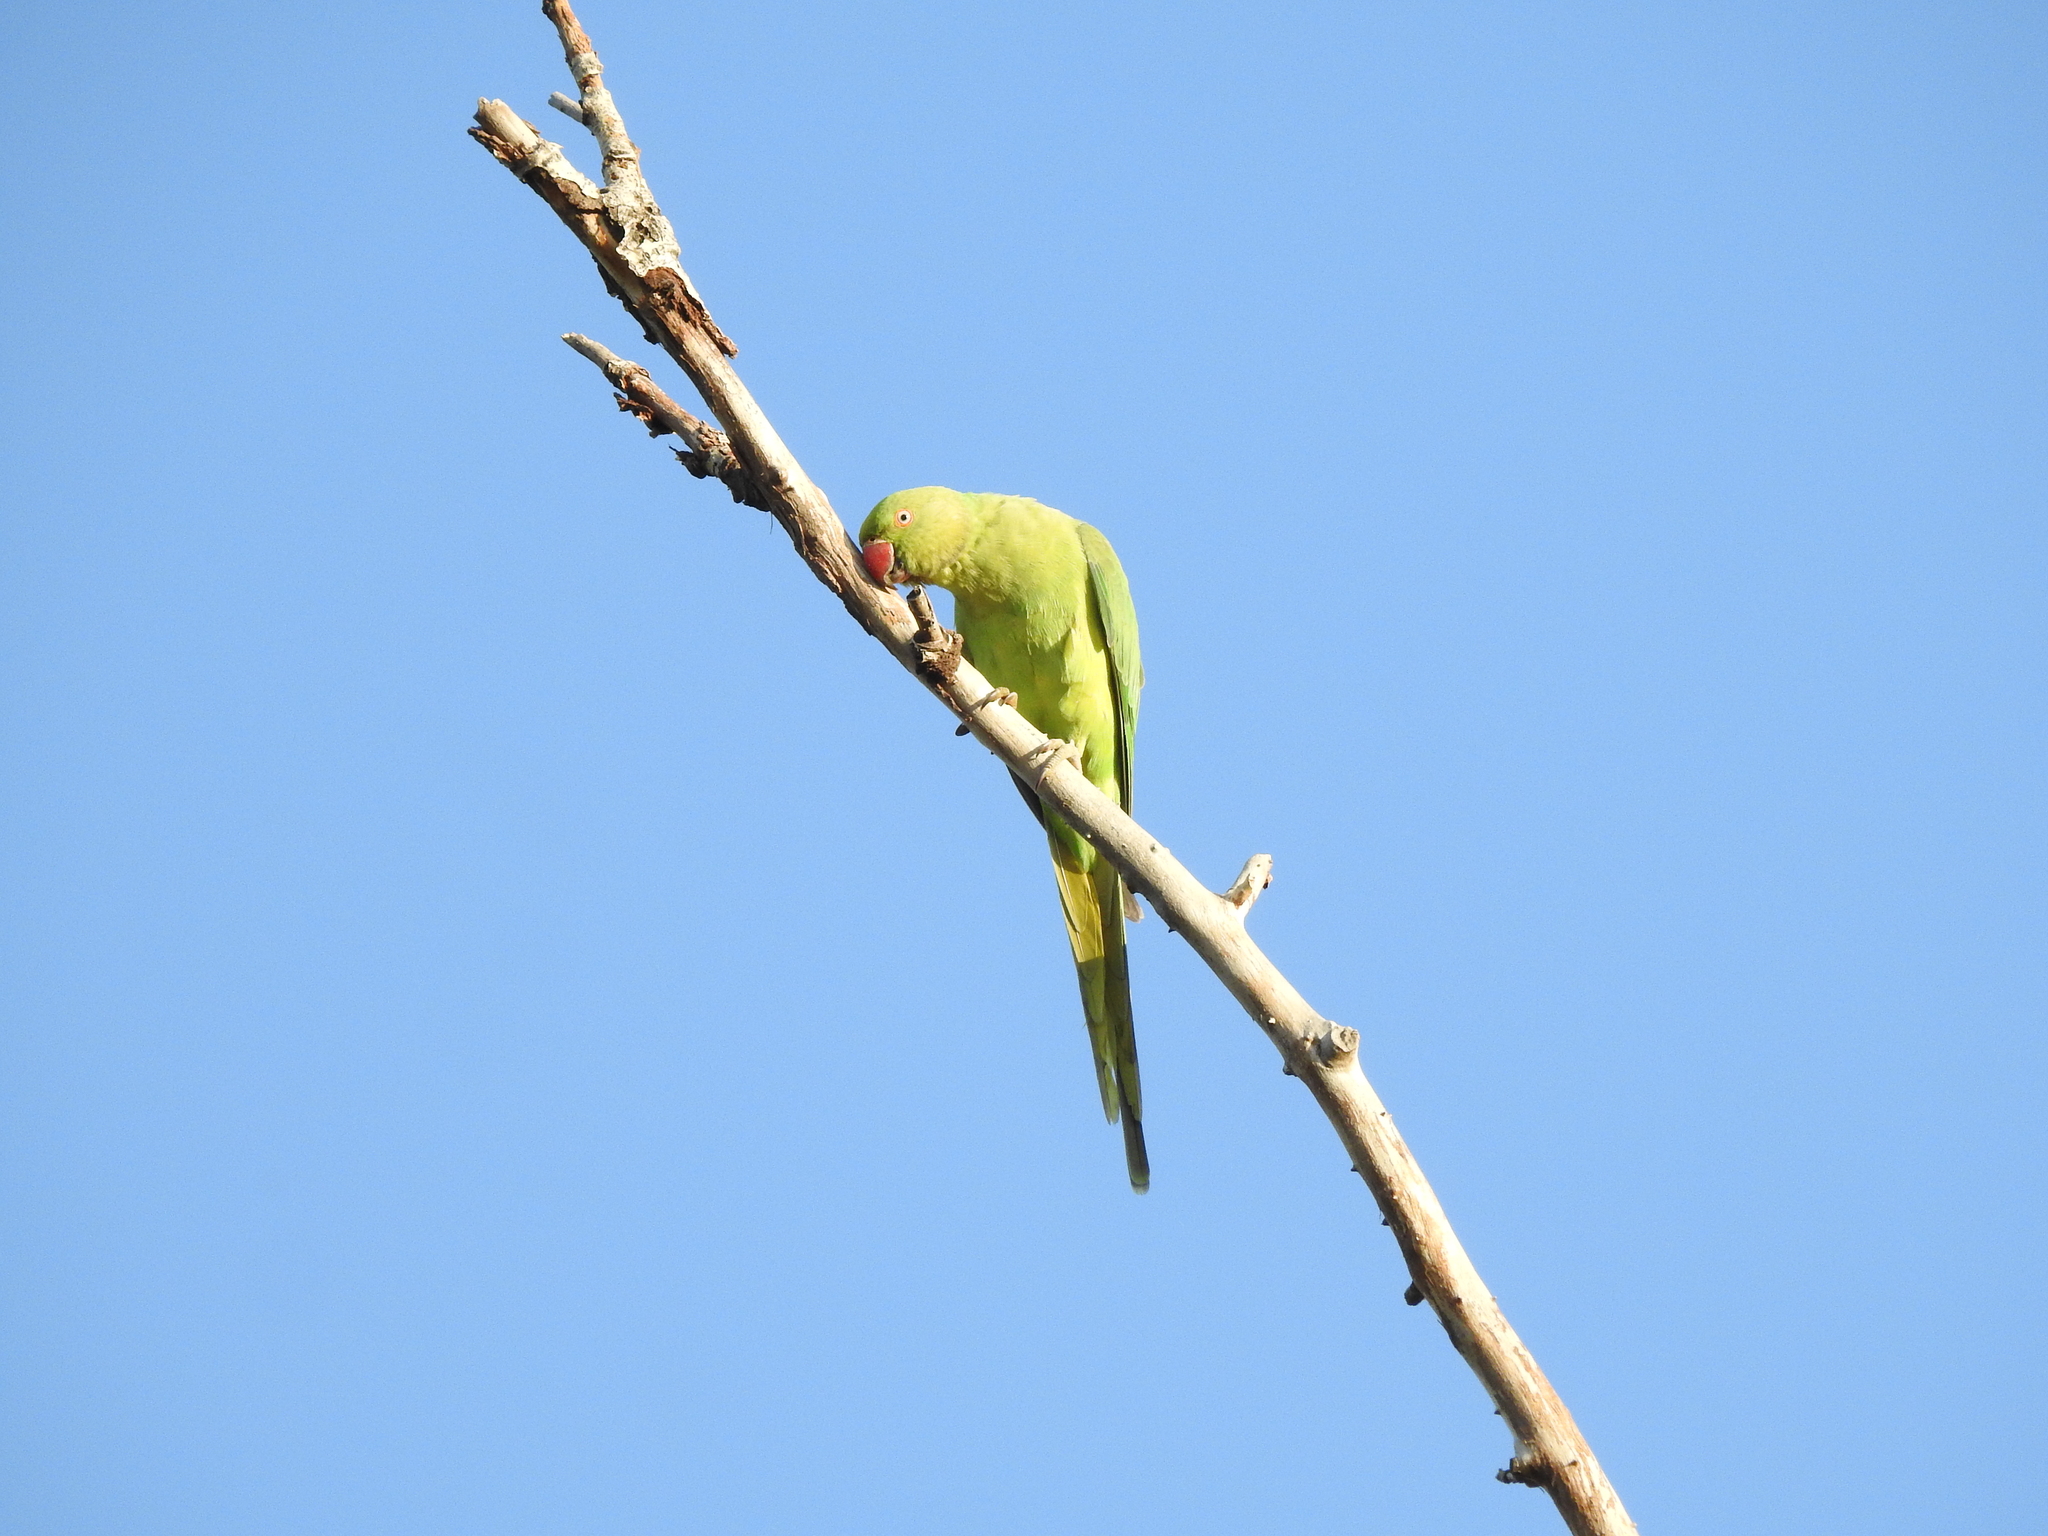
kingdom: Animalia
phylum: Chordata
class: Aves
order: Psittaciformes
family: Psittacidae
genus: Psittacula
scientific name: Psittacula krameri
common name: Rose-ringed parakeet
